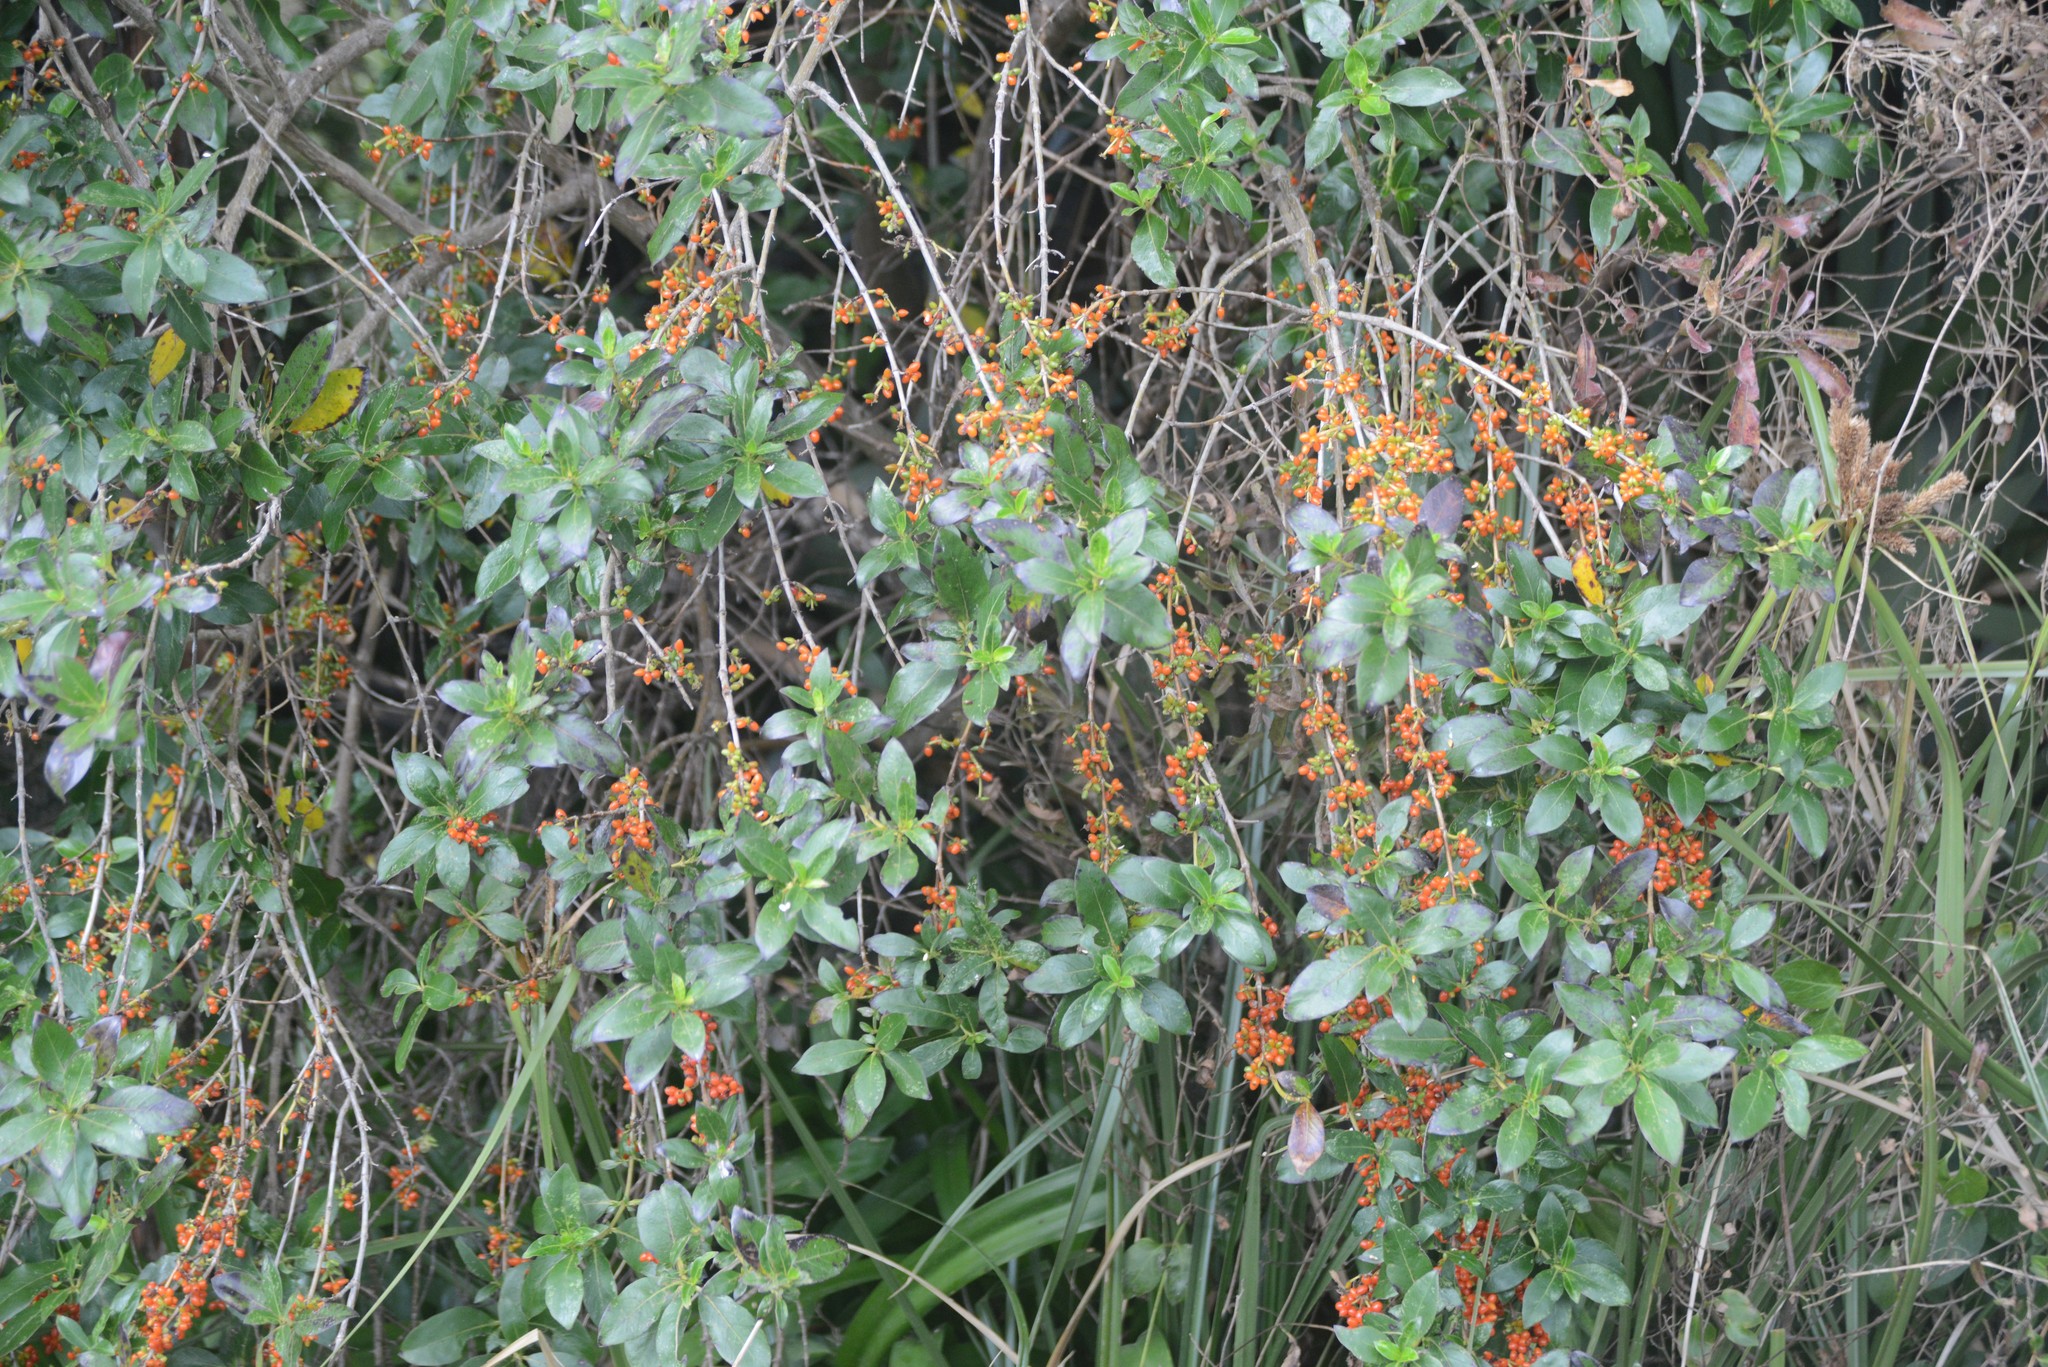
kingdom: Plantae
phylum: Tracheophyta
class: Magnoliopsida
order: Gentianales
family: Rubiaceae
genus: Coprosma
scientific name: Coprosma robusta
